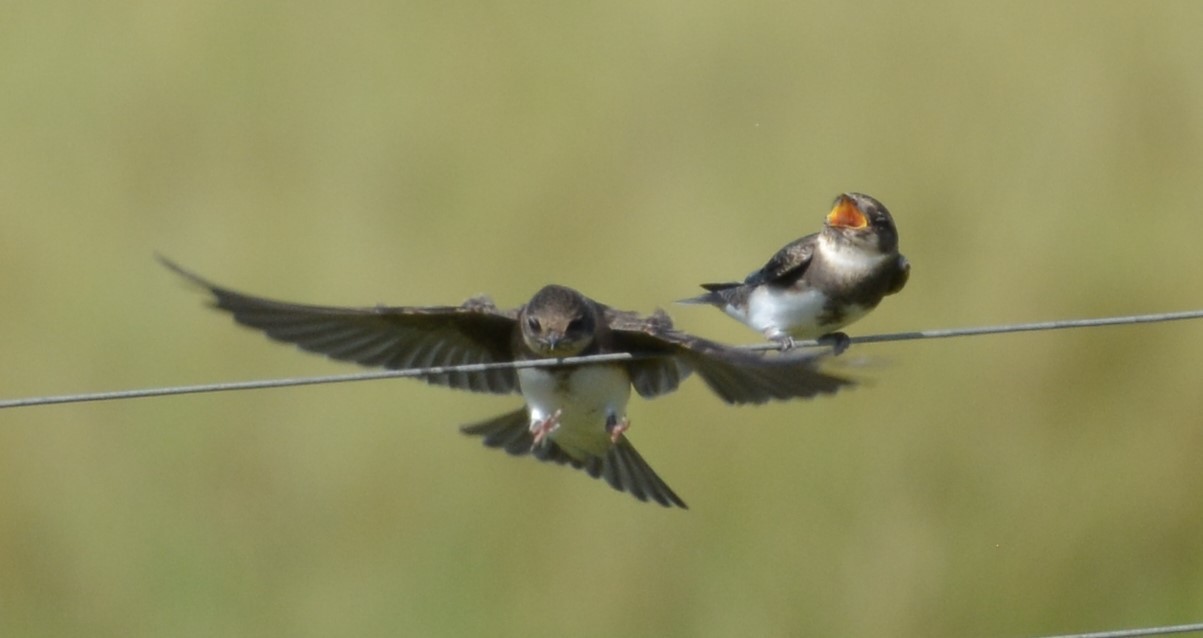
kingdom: Animalia
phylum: Chordata
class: Aves
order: Passeriformes
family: Hirundinidae
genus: Riparia
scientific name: Riparia riparia
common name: Sand martin
